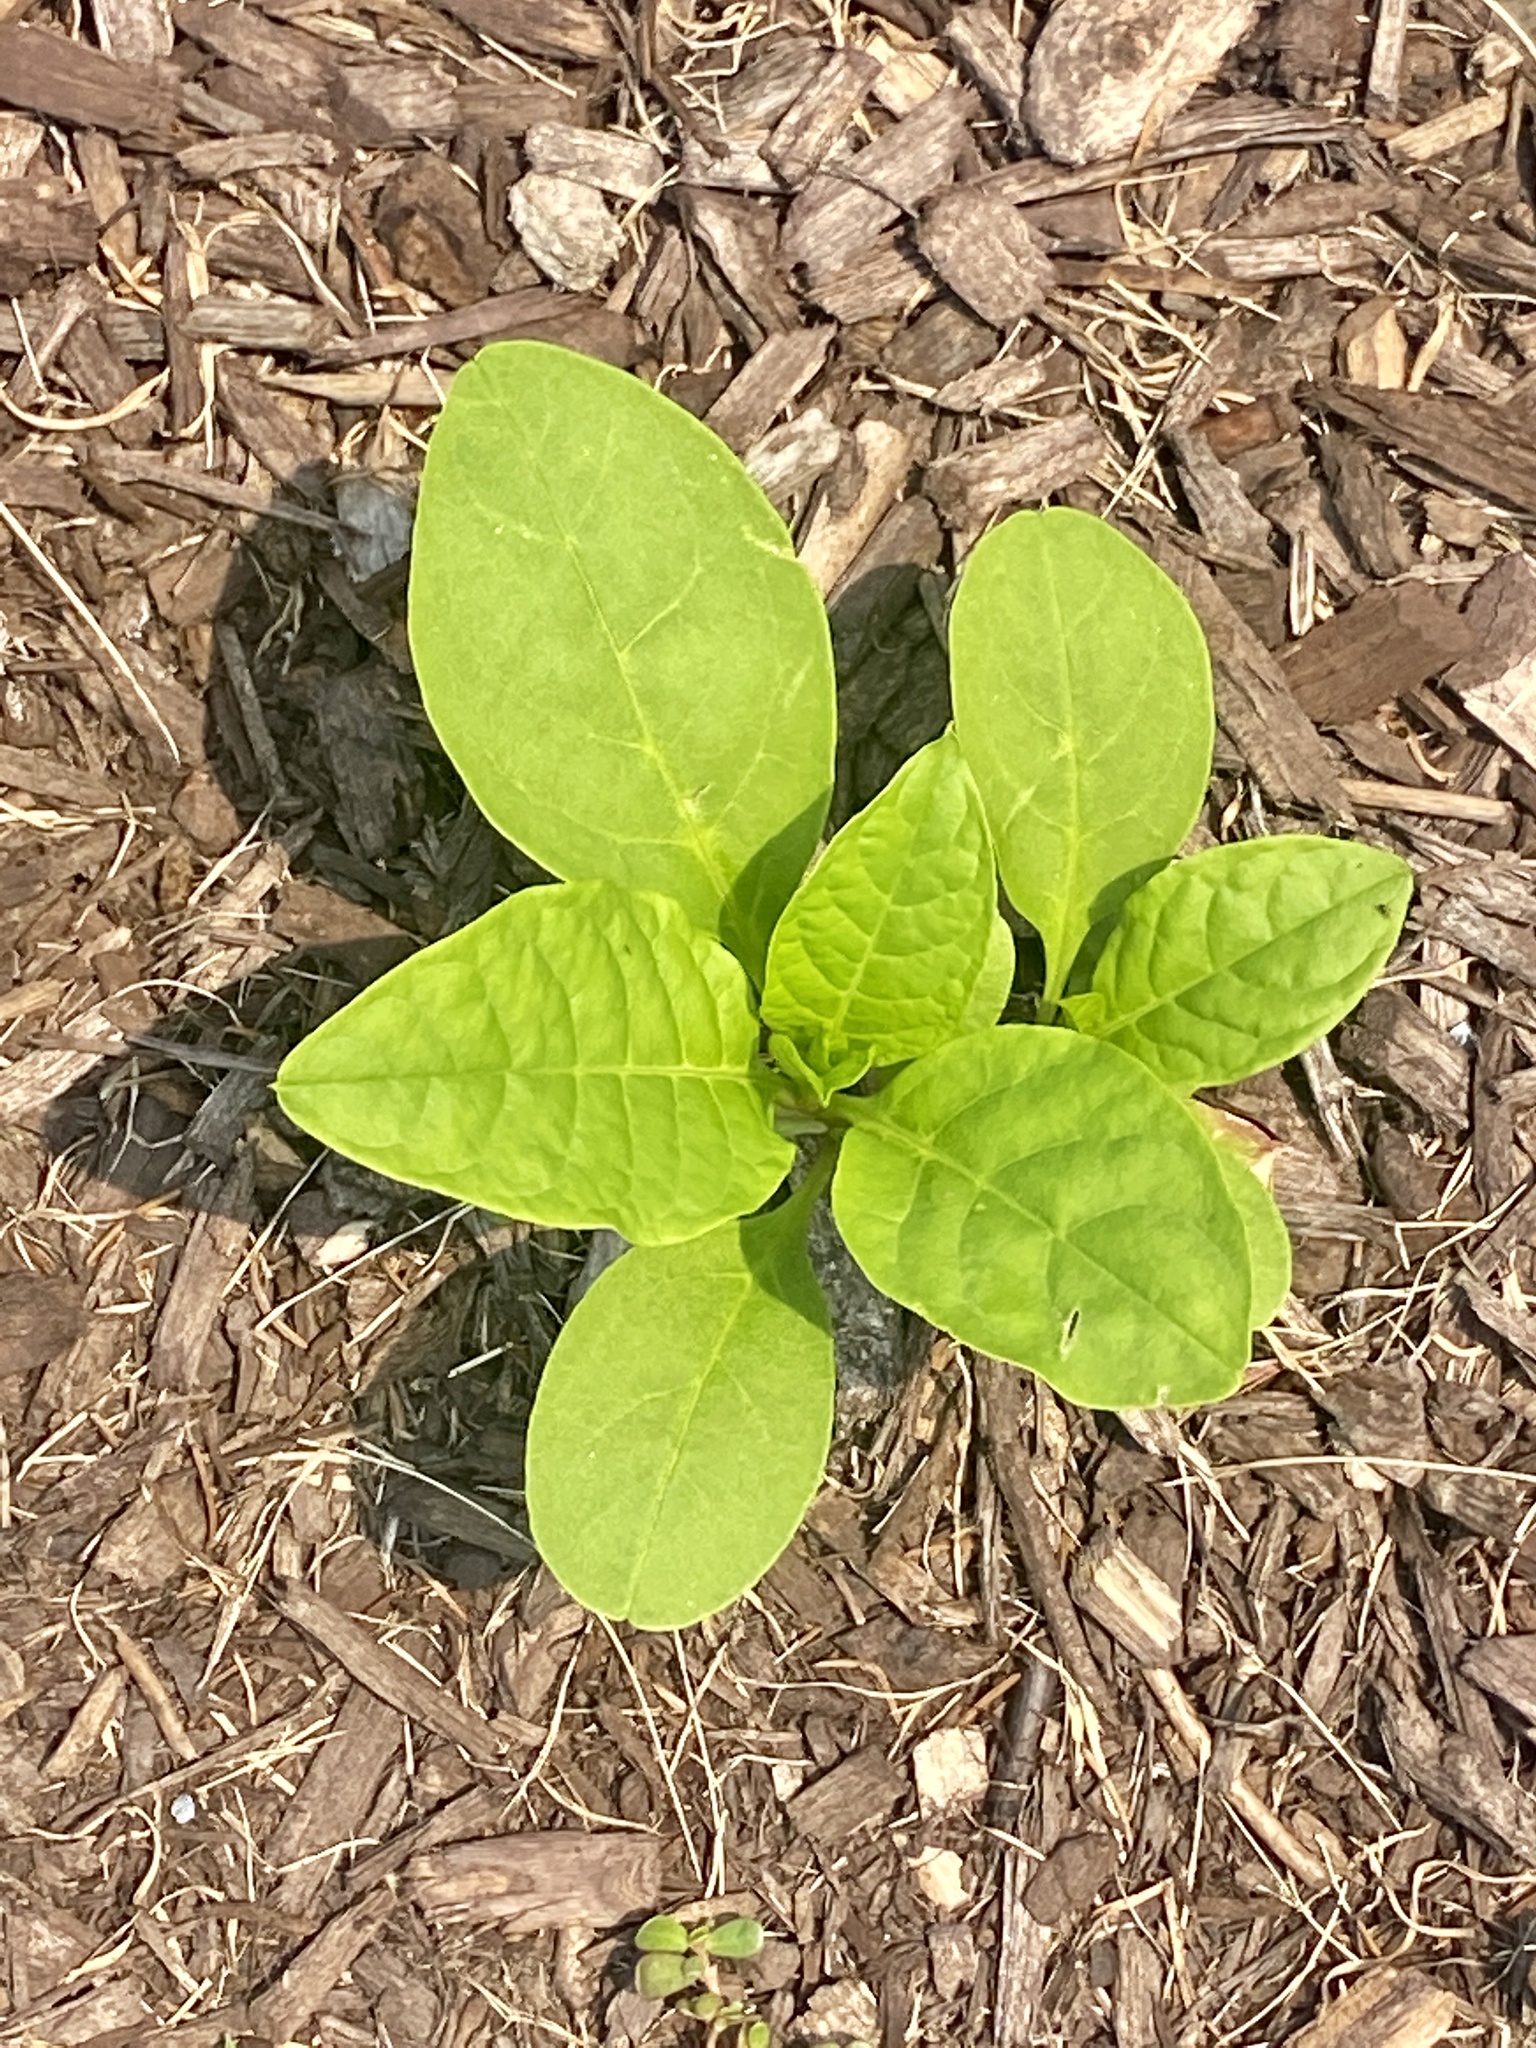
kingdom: Plantae
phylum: Tracheophyta
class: Magnoliopsida
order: Caryophyllales
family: Phytolaccaceae
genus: Phytolacca
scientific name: Phytolacca americana
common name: American pokeweed
